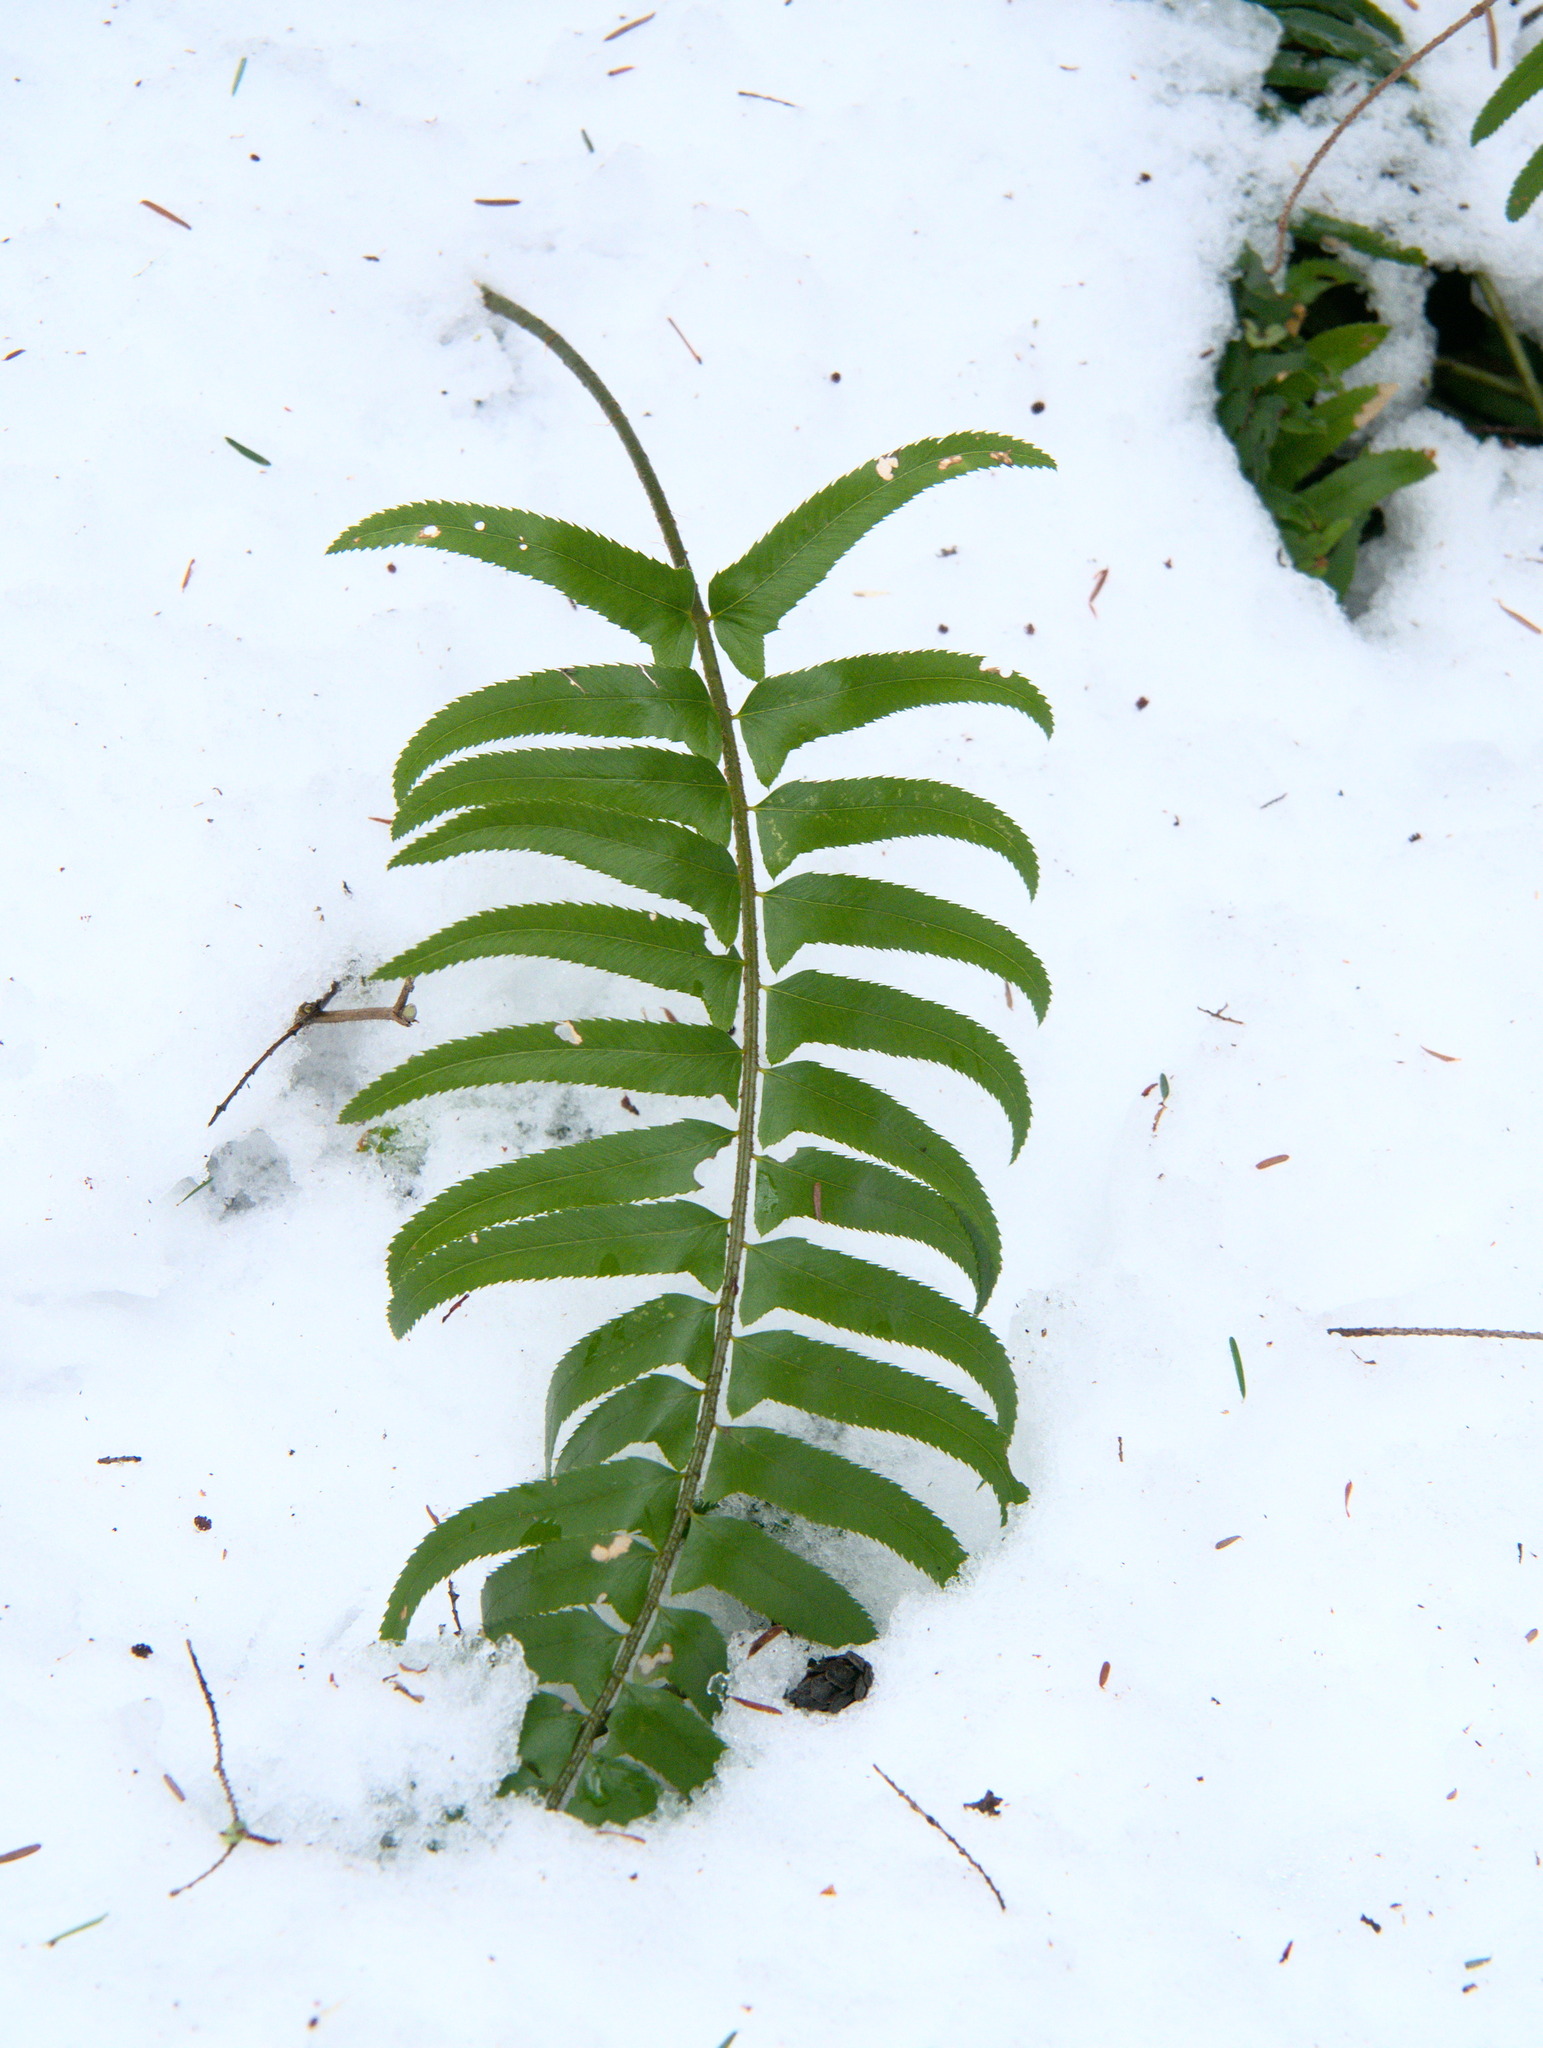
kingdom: Plantae
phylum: Tracheophyta
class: Polypodiopsida
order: Polypodiales
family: Dryopteridaceae
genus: Polystichum
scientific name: Polystichum munitum
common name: Western sword-fern
